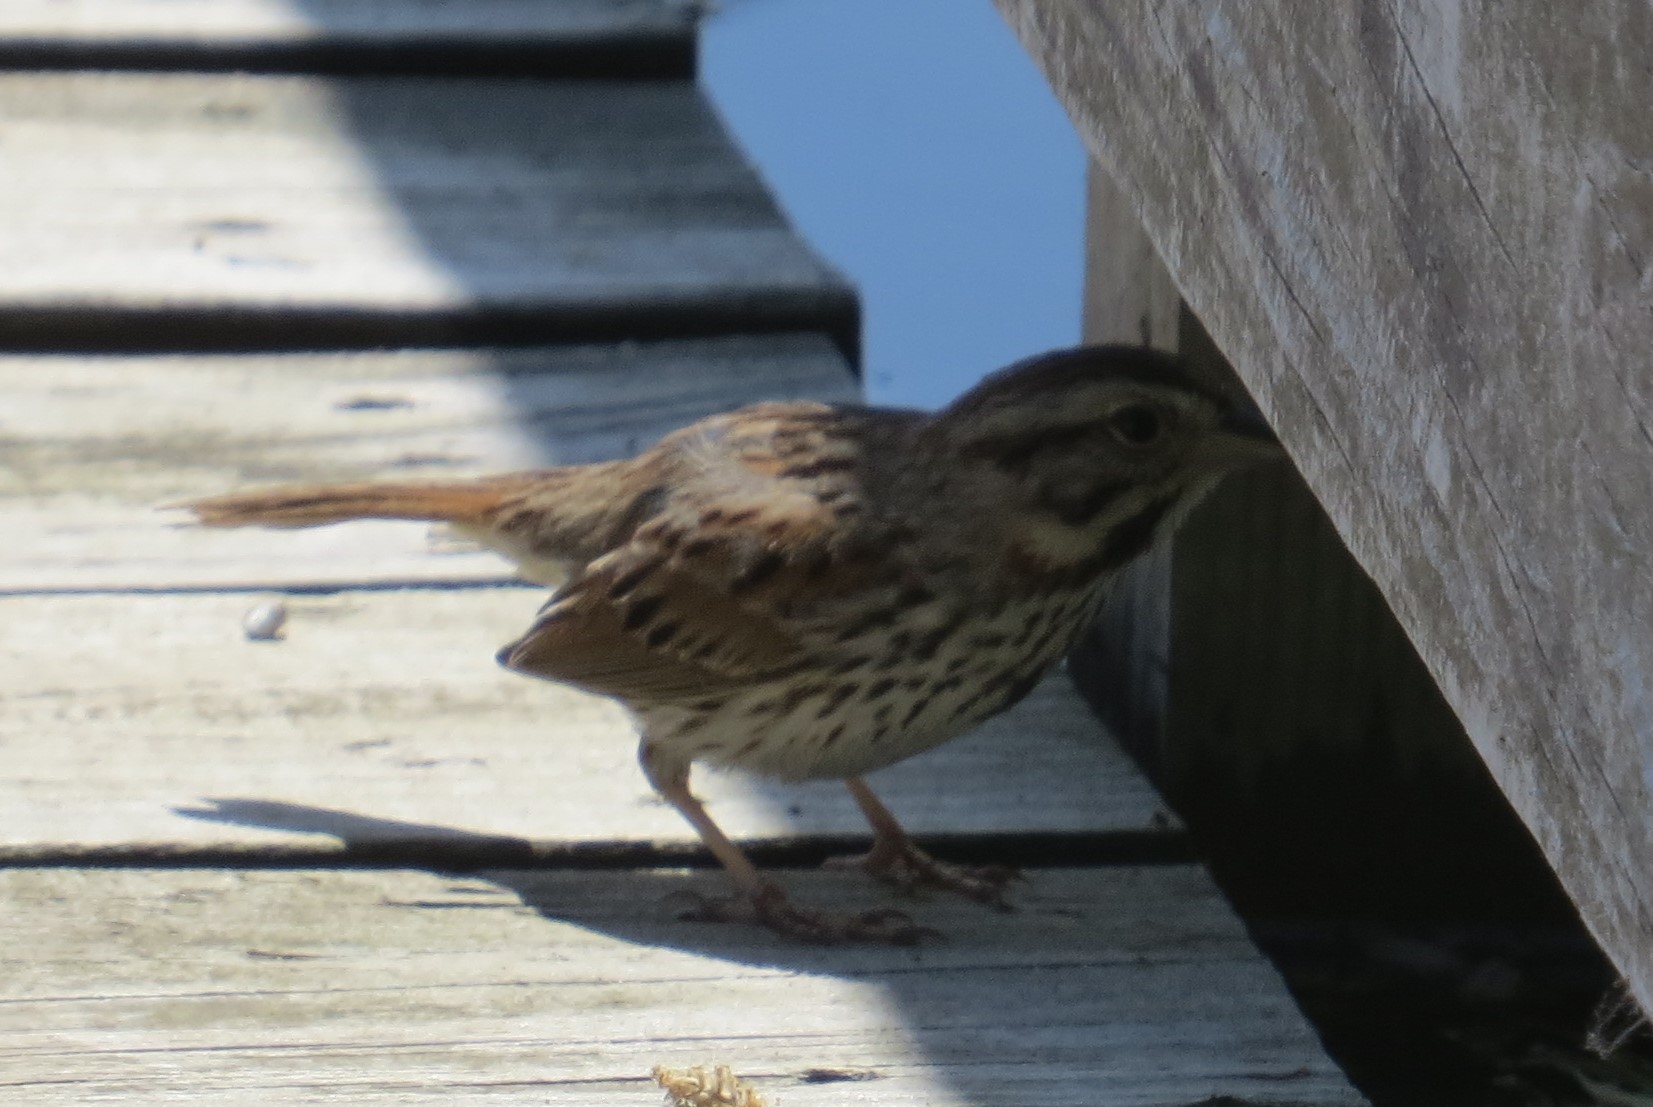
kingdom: Animalia
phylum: Chordata
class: Aves
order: Passeriformes
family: Passerellidae
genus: Melospiza
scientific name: Melospiza melodia
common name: Song sparrow
